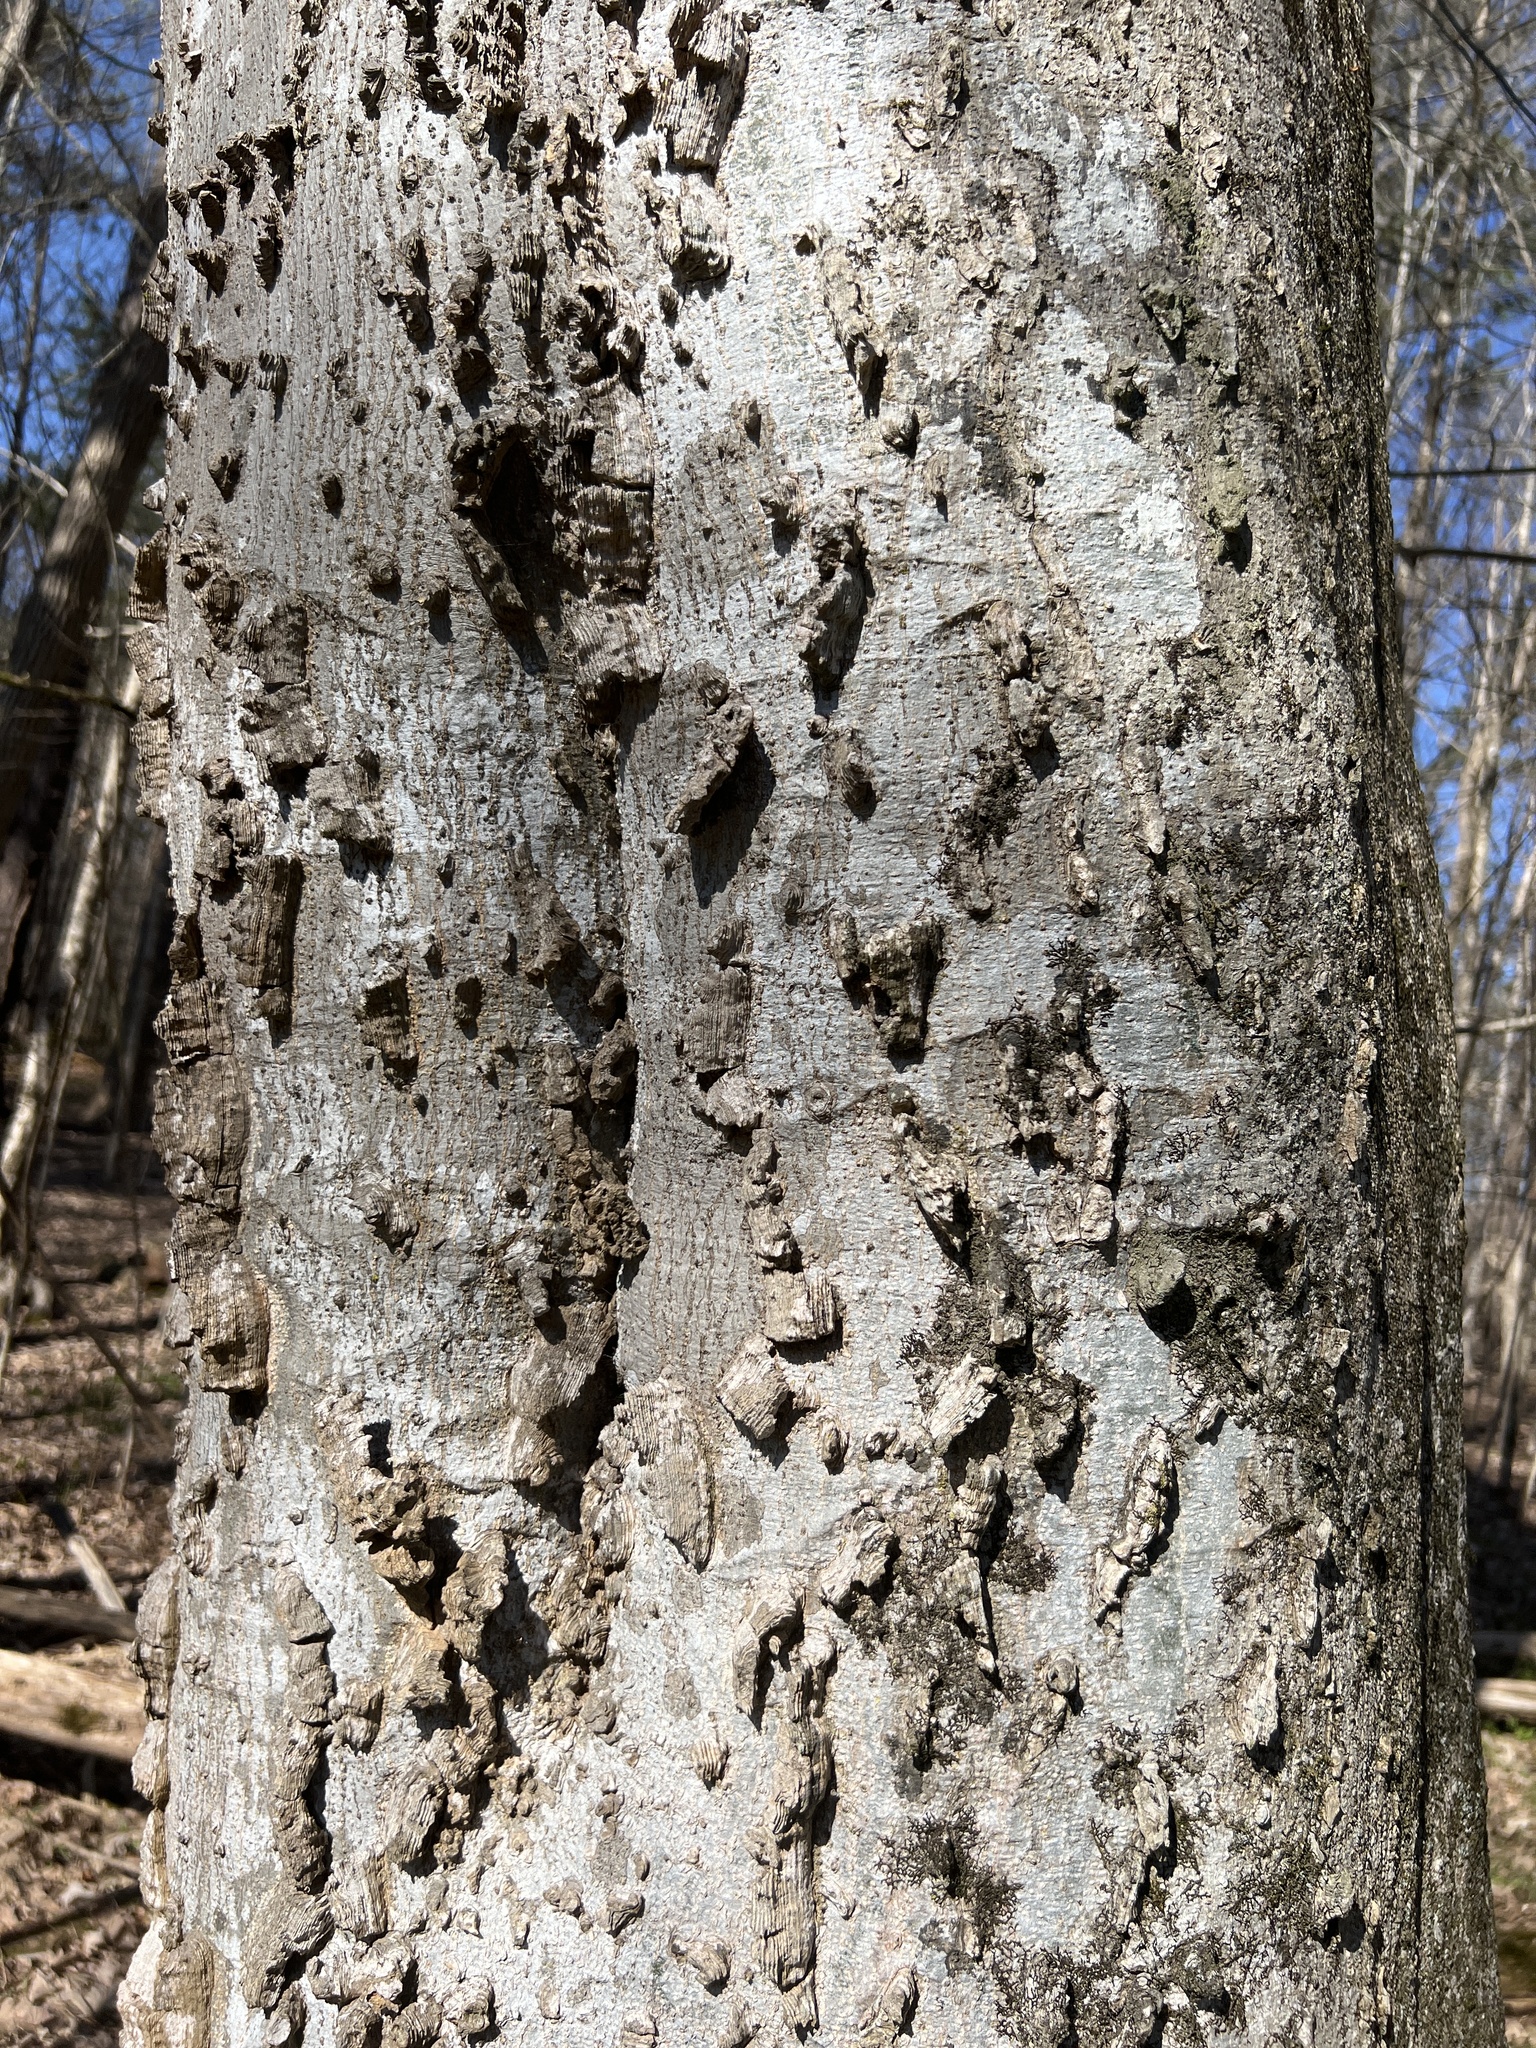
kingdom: Plantae
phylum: Tracheophyta
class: Magnoliopsida
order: Rosales
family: Cannabaceae
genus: Celtis
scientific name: Celtis laevigata
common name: Sugarberry
